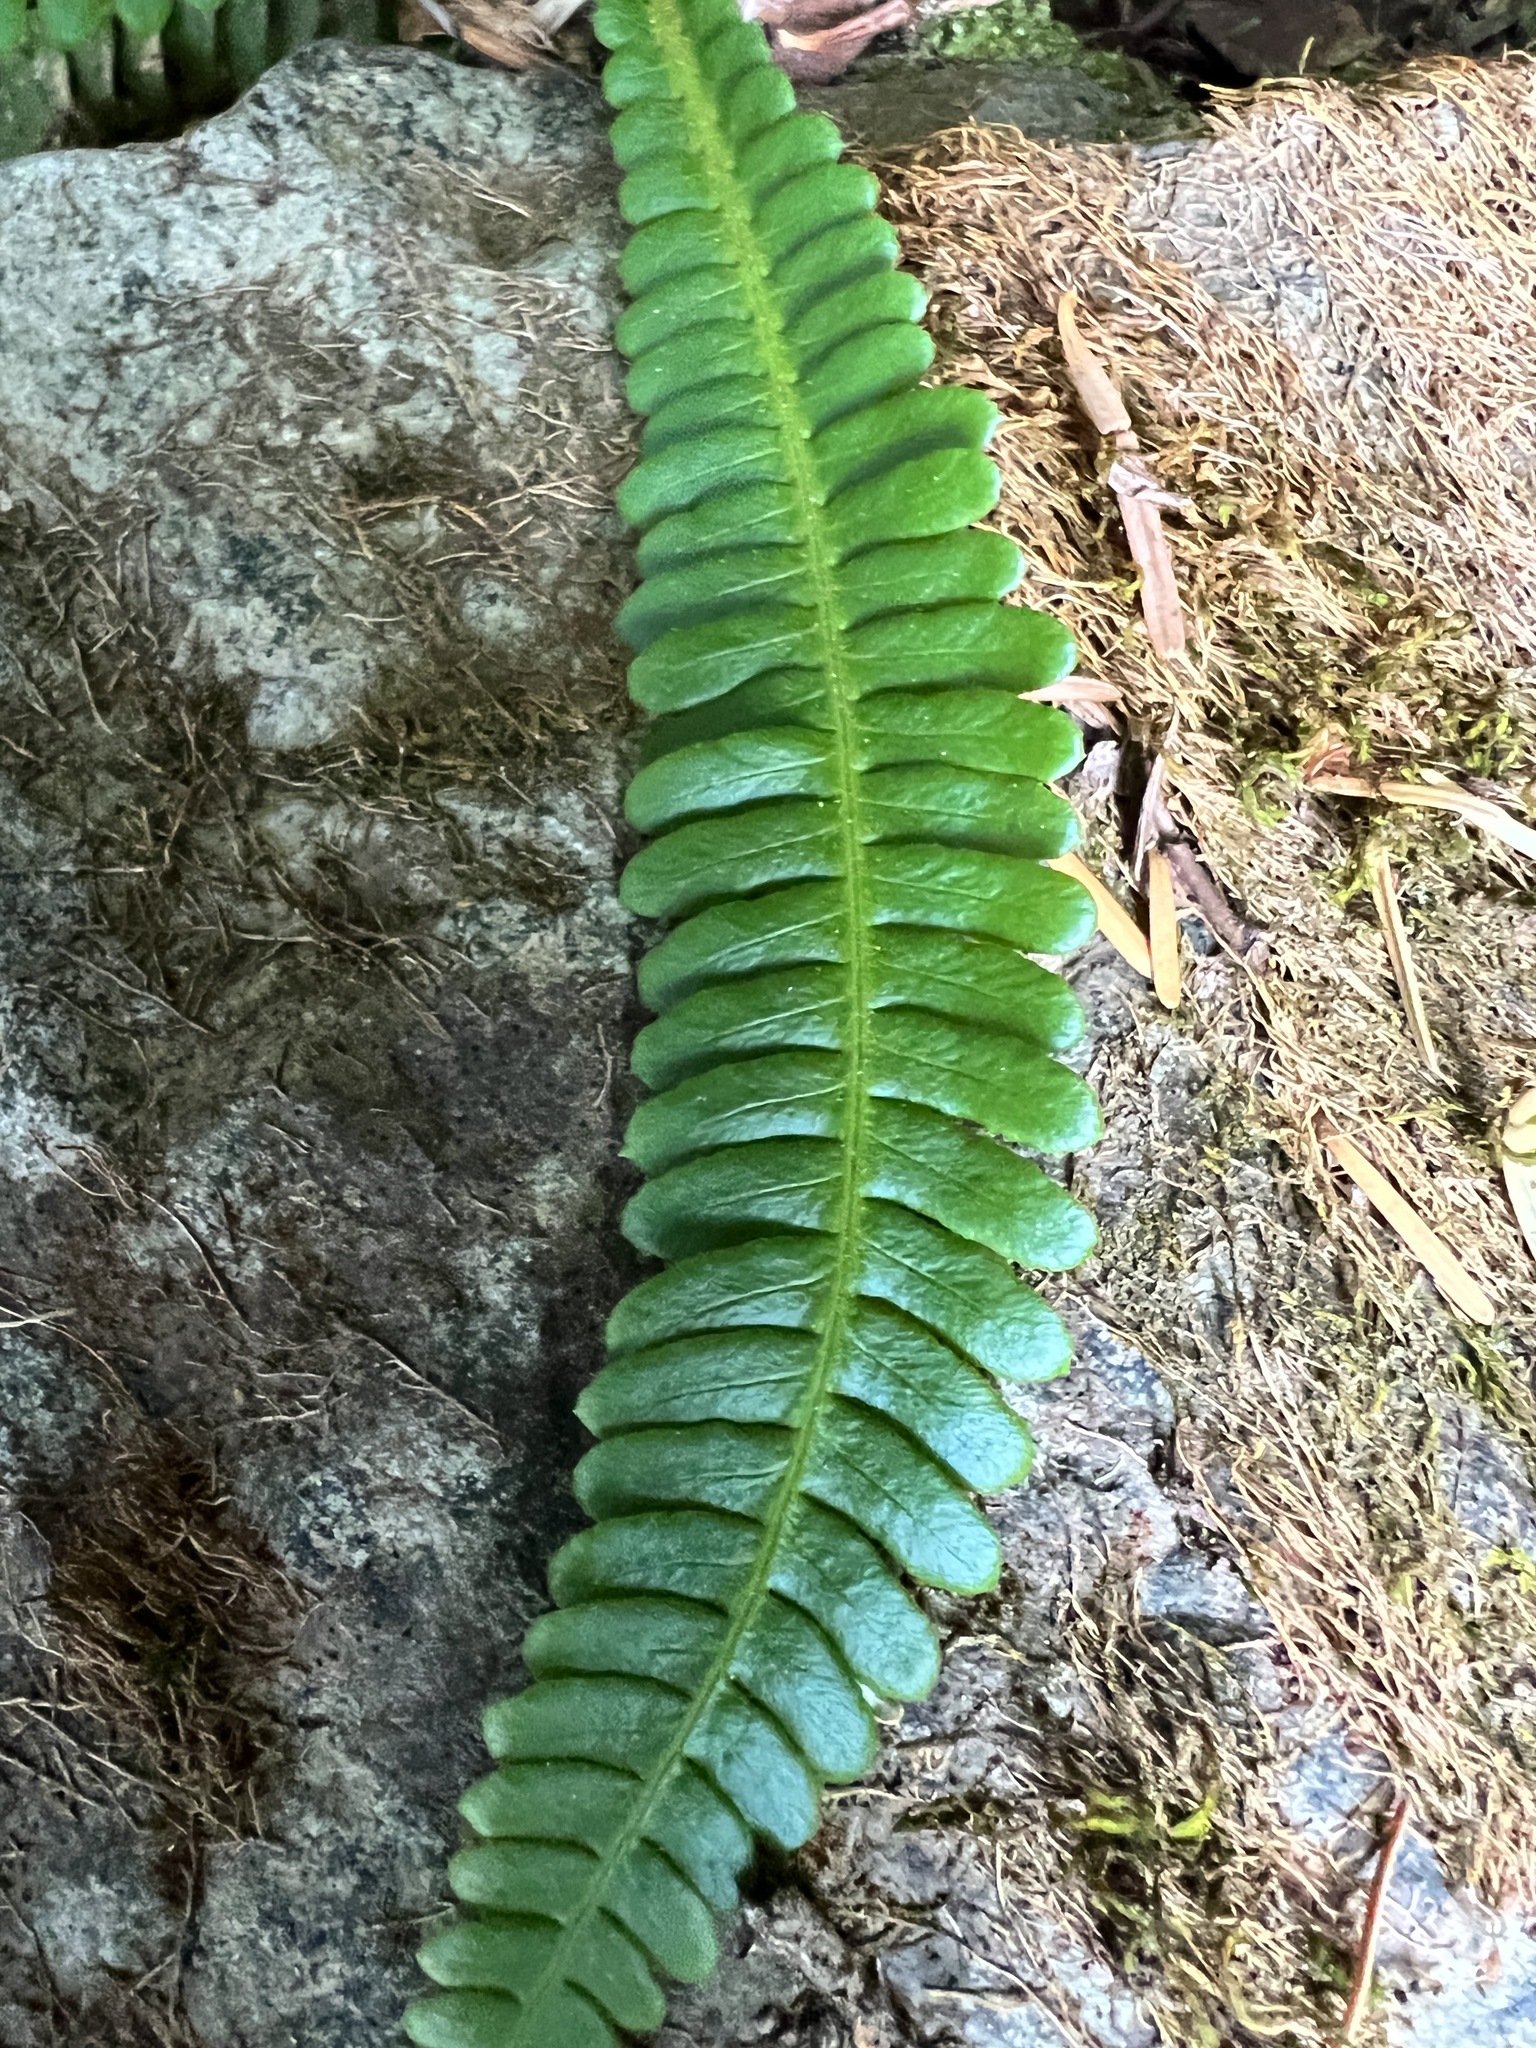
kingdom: Plantae
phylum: Tracheophyta
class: Polypodiopsida
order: Polypodiales
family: Blechnaceae
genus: Struthiopteris
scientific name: Struthiopteris spicant
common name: Deer fern
